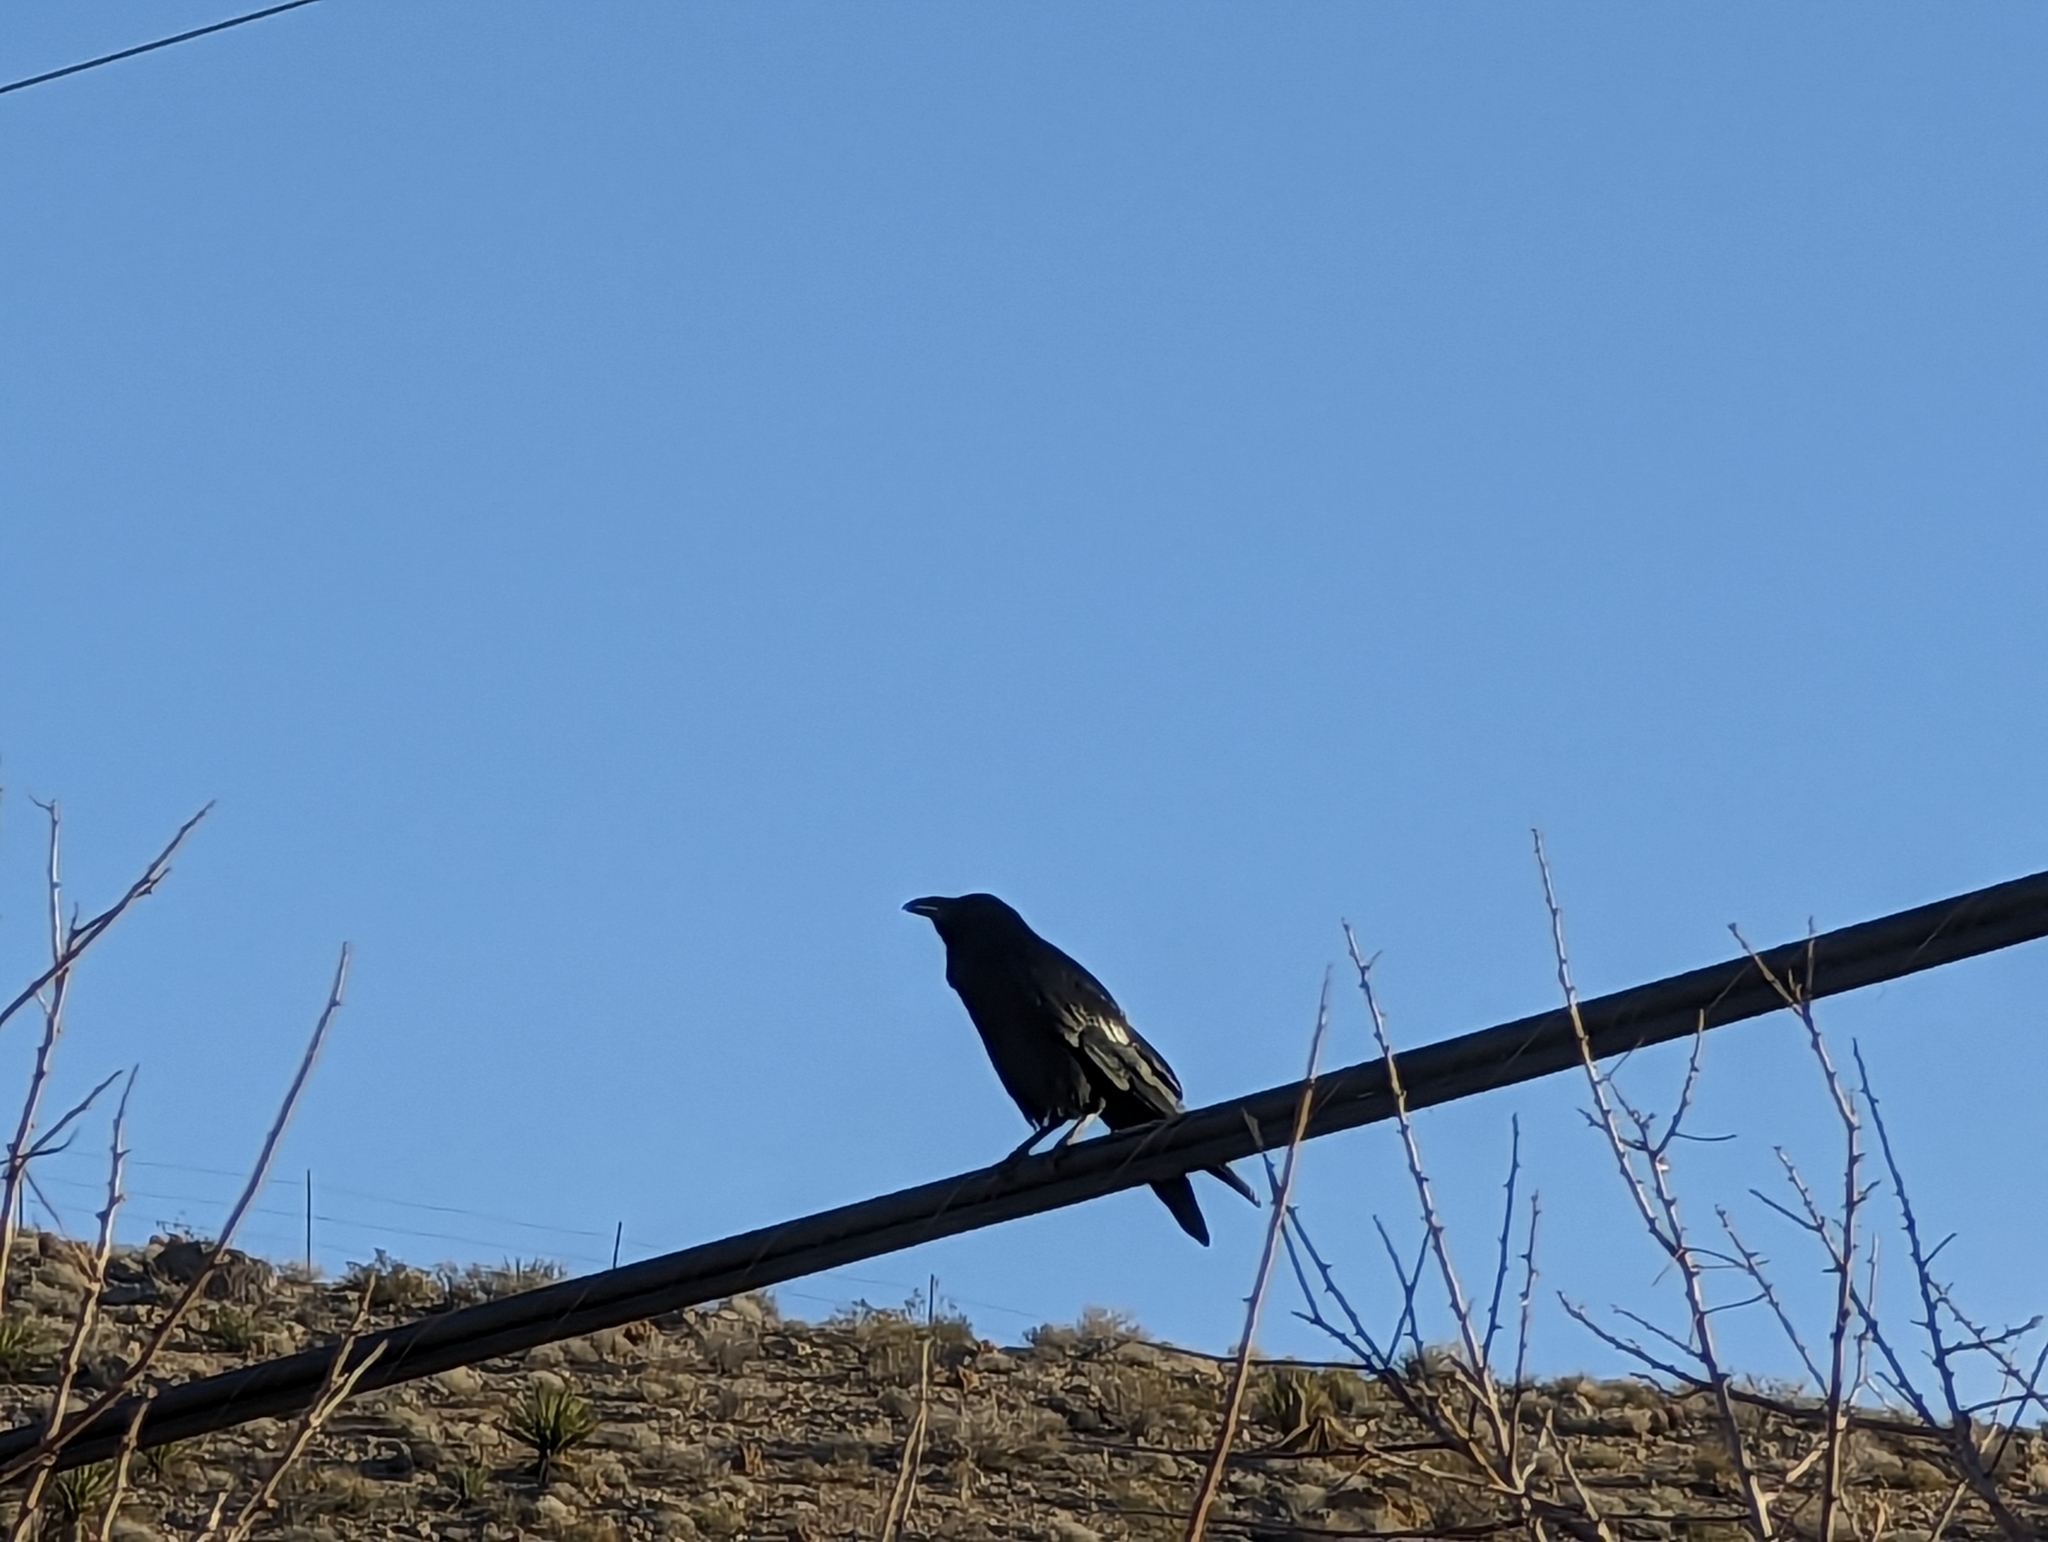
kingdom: Animalia
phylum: Chordata
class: Aves
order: Passeriformes
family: Corvidae
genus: Corvus
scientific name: Corvus corax
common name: Common raven
